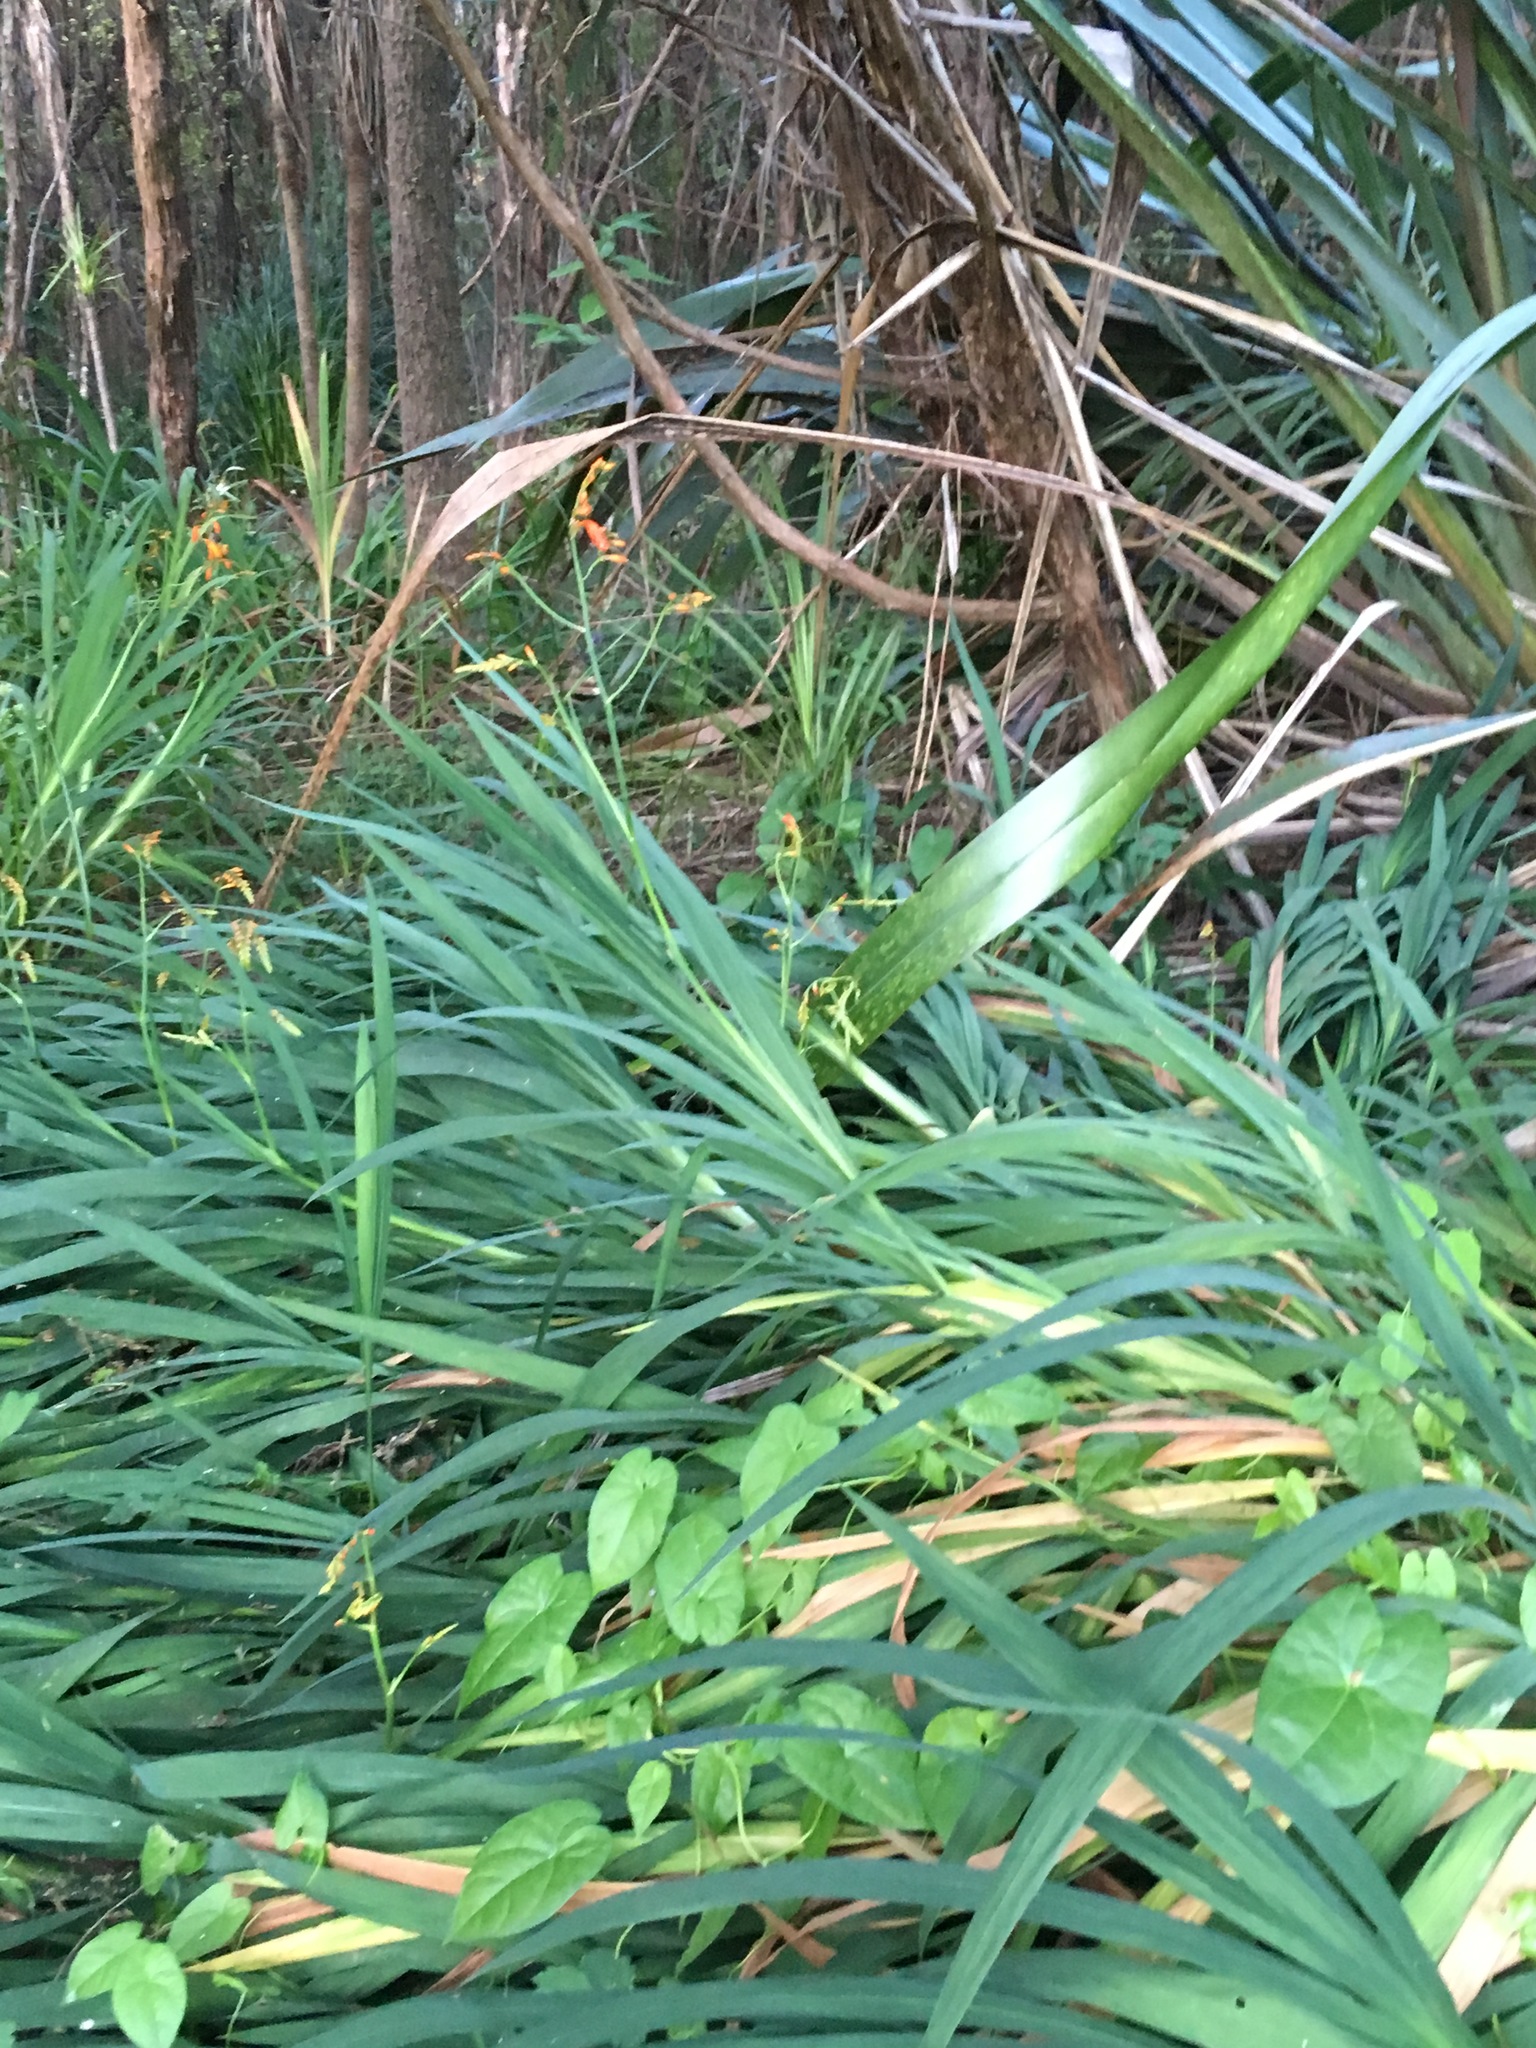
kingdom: Plantae
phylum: Tracheophyta
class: Liliopsida
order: Asparagales
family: Iridaceae
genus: Watsonia
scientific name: Watsonia meriana
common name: Bulbil bugle-lily
